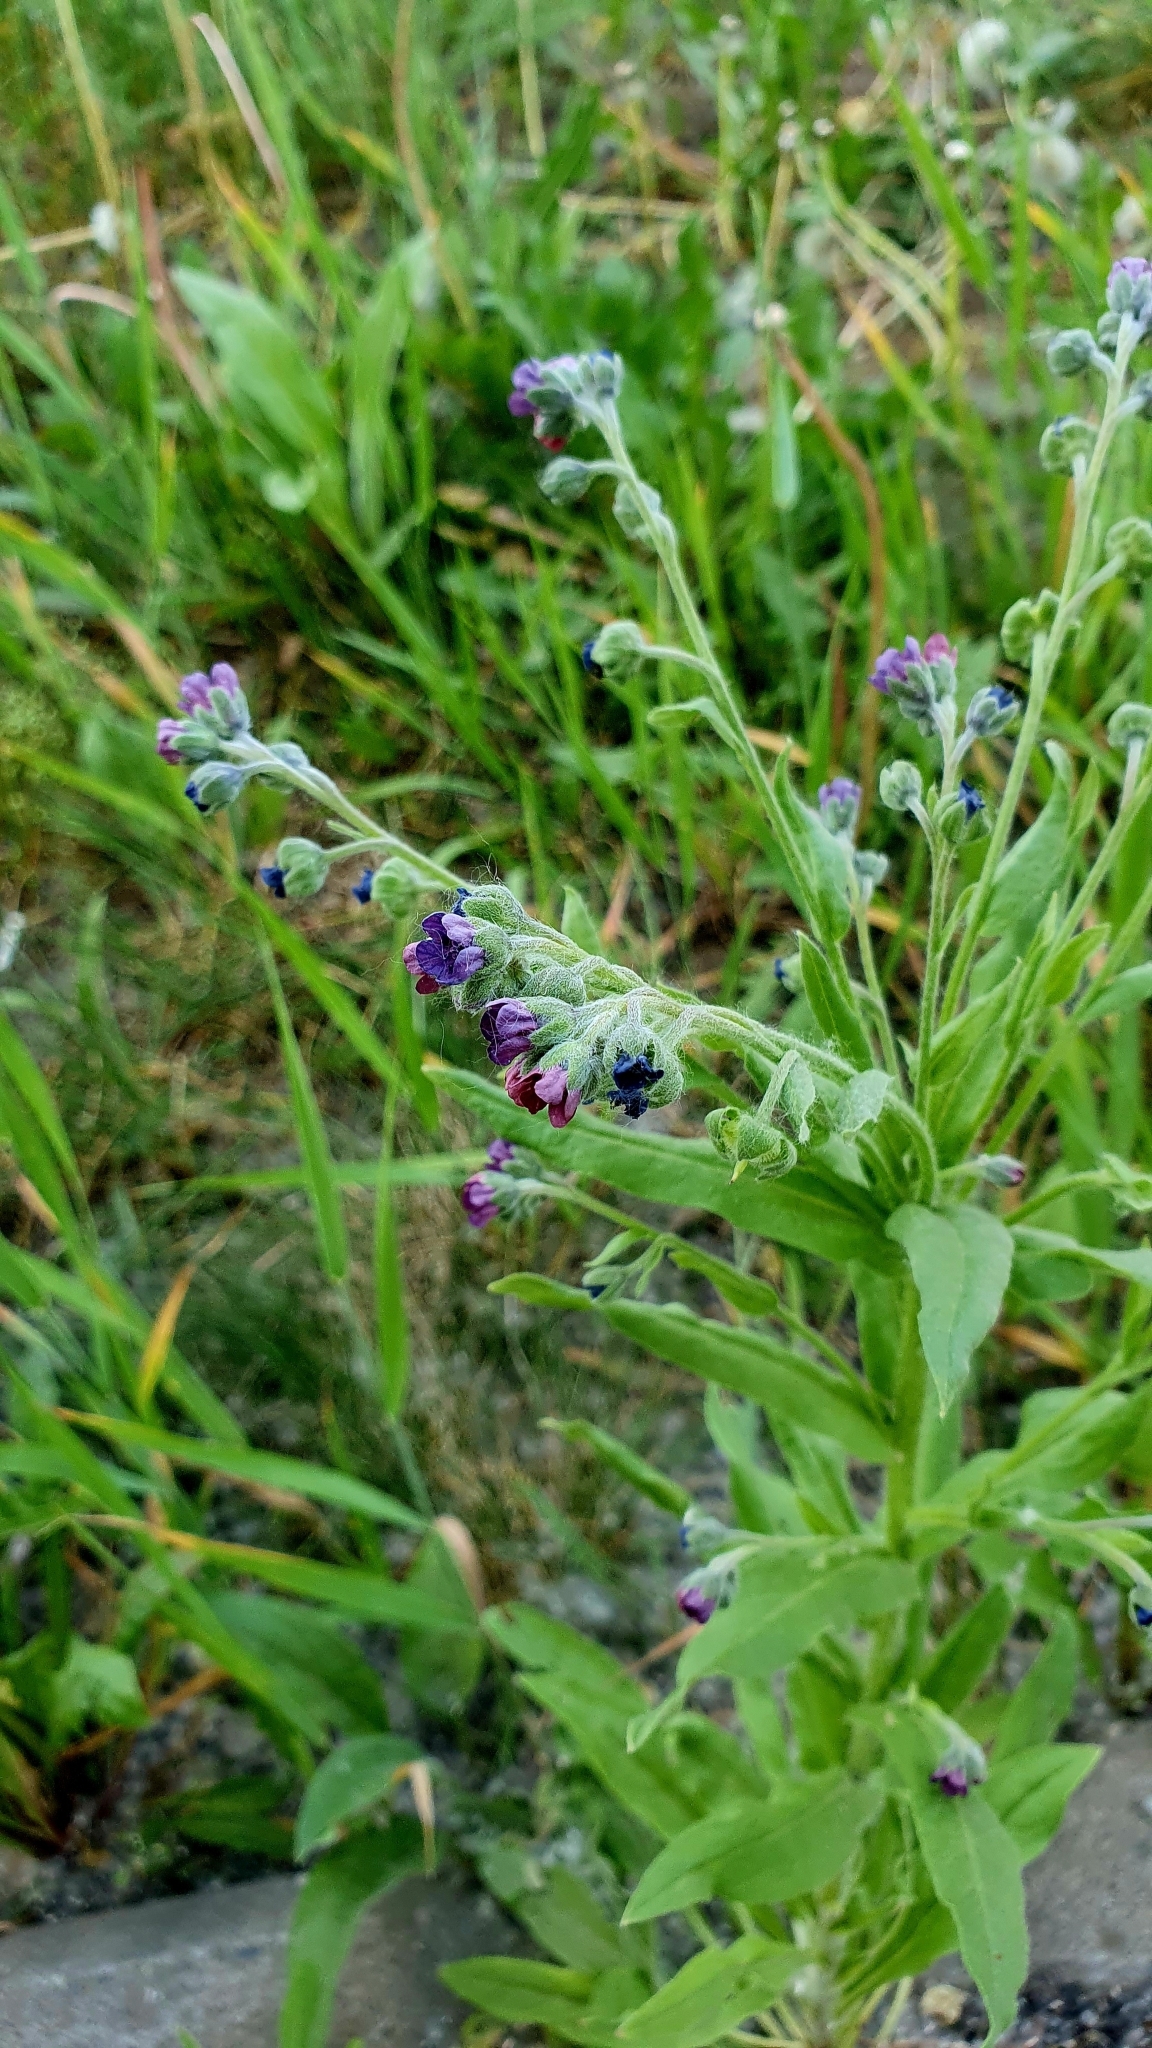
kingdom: Plantae
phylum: Tracheophyta
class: Magnoliopsida
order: Boraginales
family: Boraginaceae
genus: Cynoglossum
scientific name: Cynoglossum officinale
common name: Hound's-tongue
